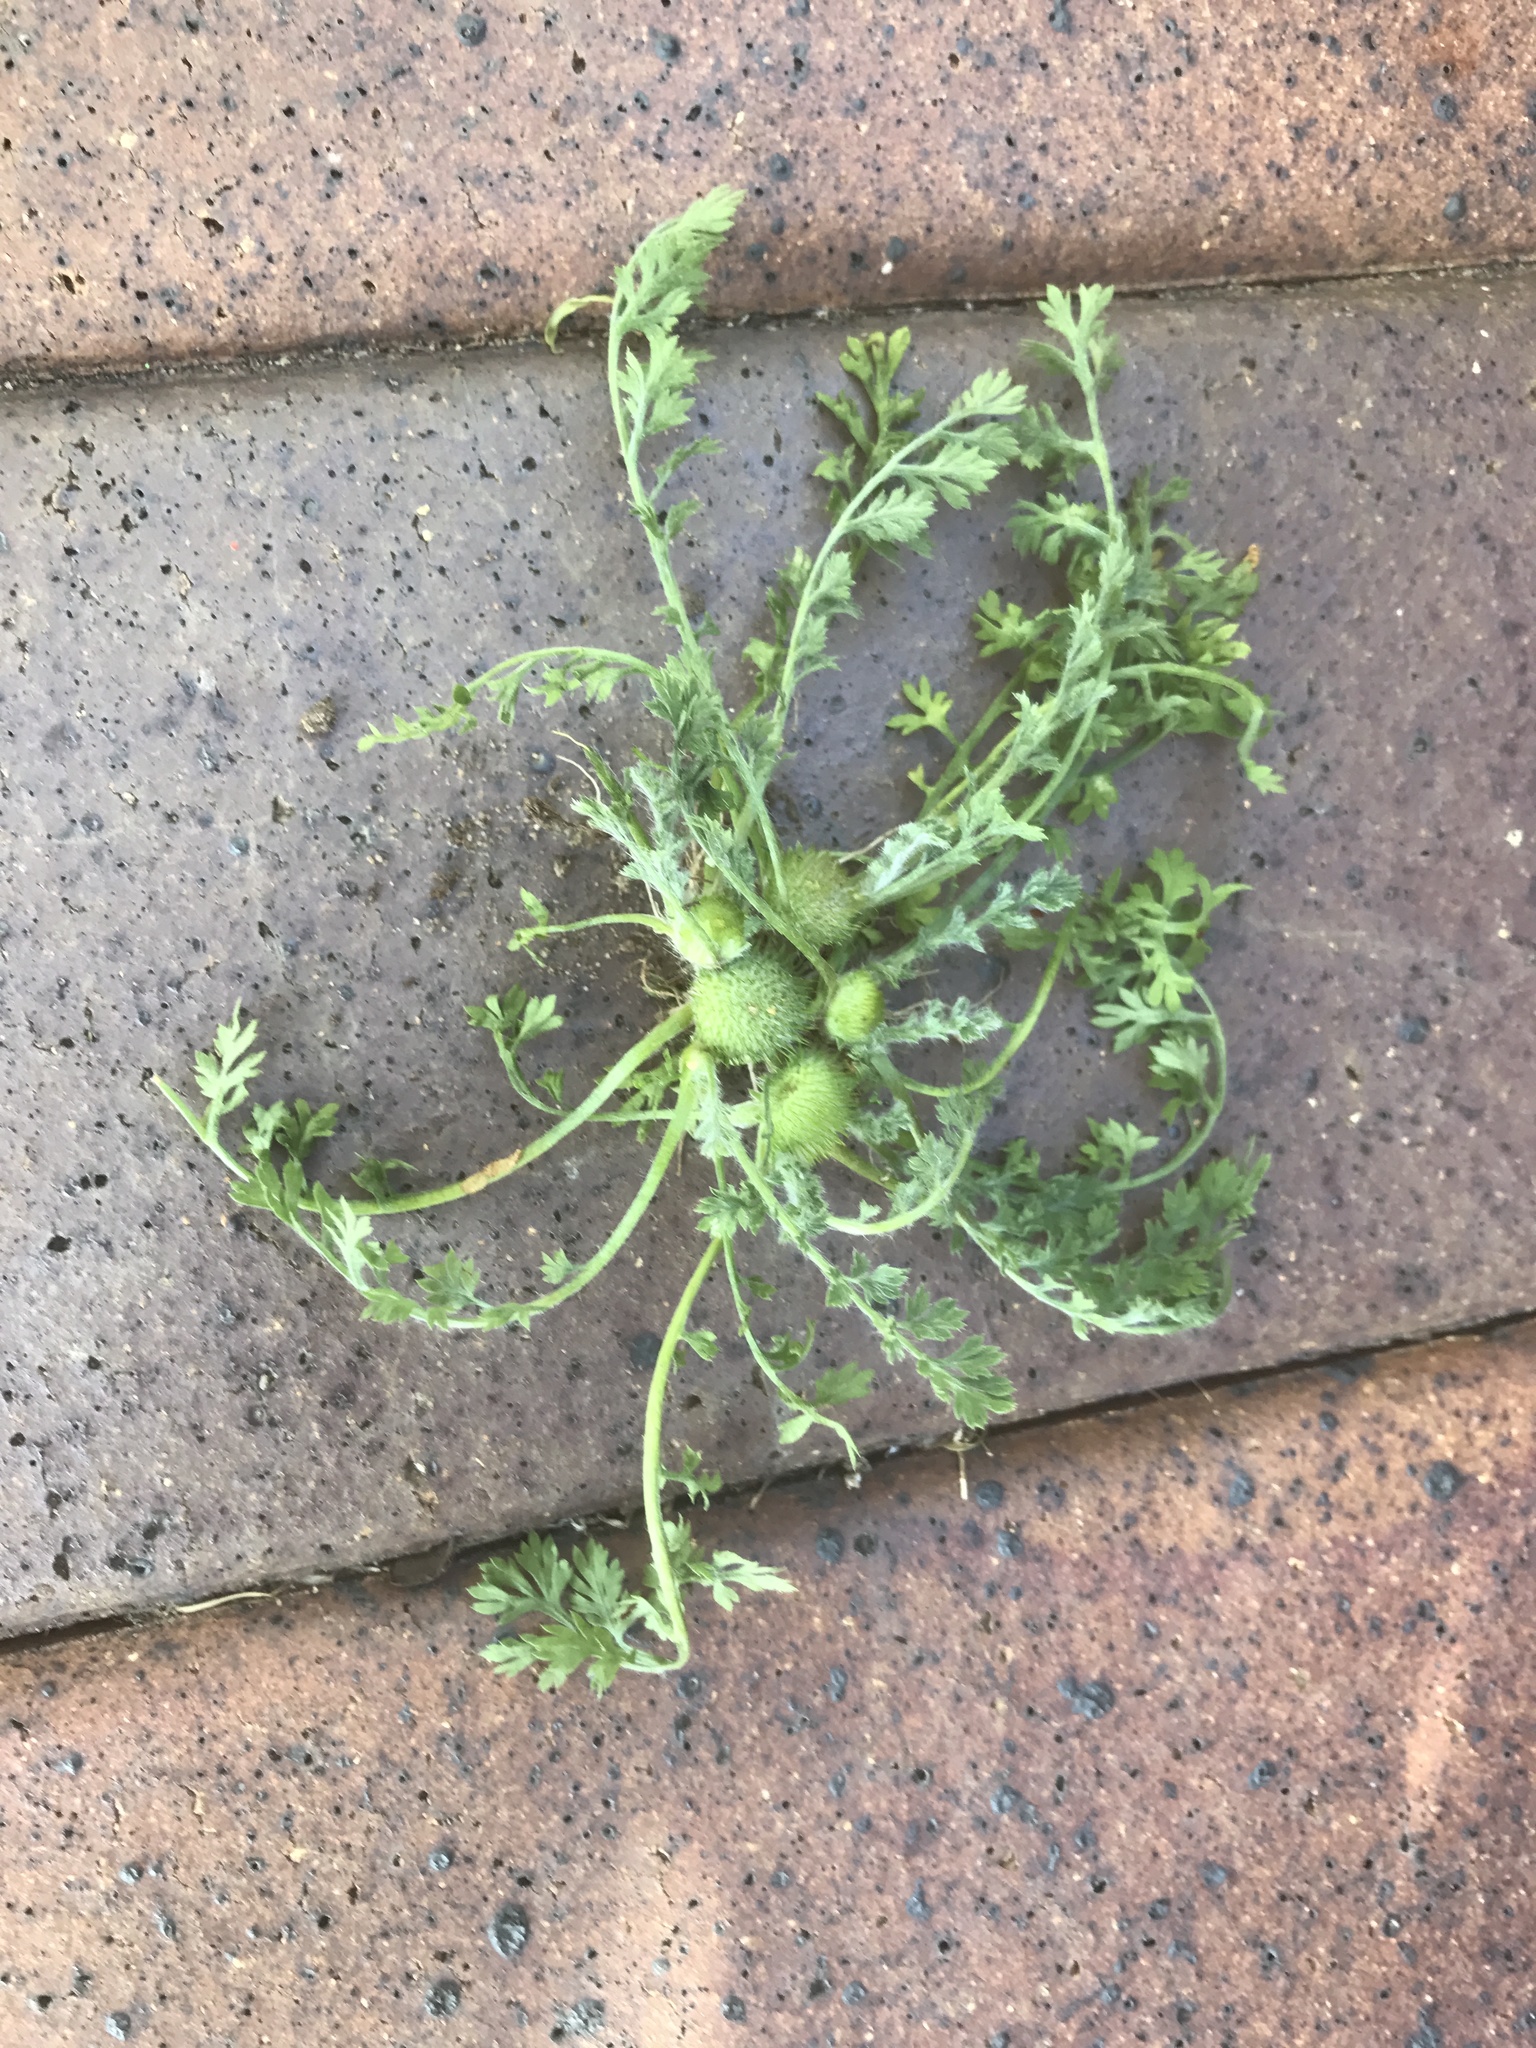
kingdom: Plantae
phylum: Tracheophyta
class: Magnoliopsida
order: Asterales
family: Asteraceae
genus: Soliva
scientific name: Soliva anthemifolia
